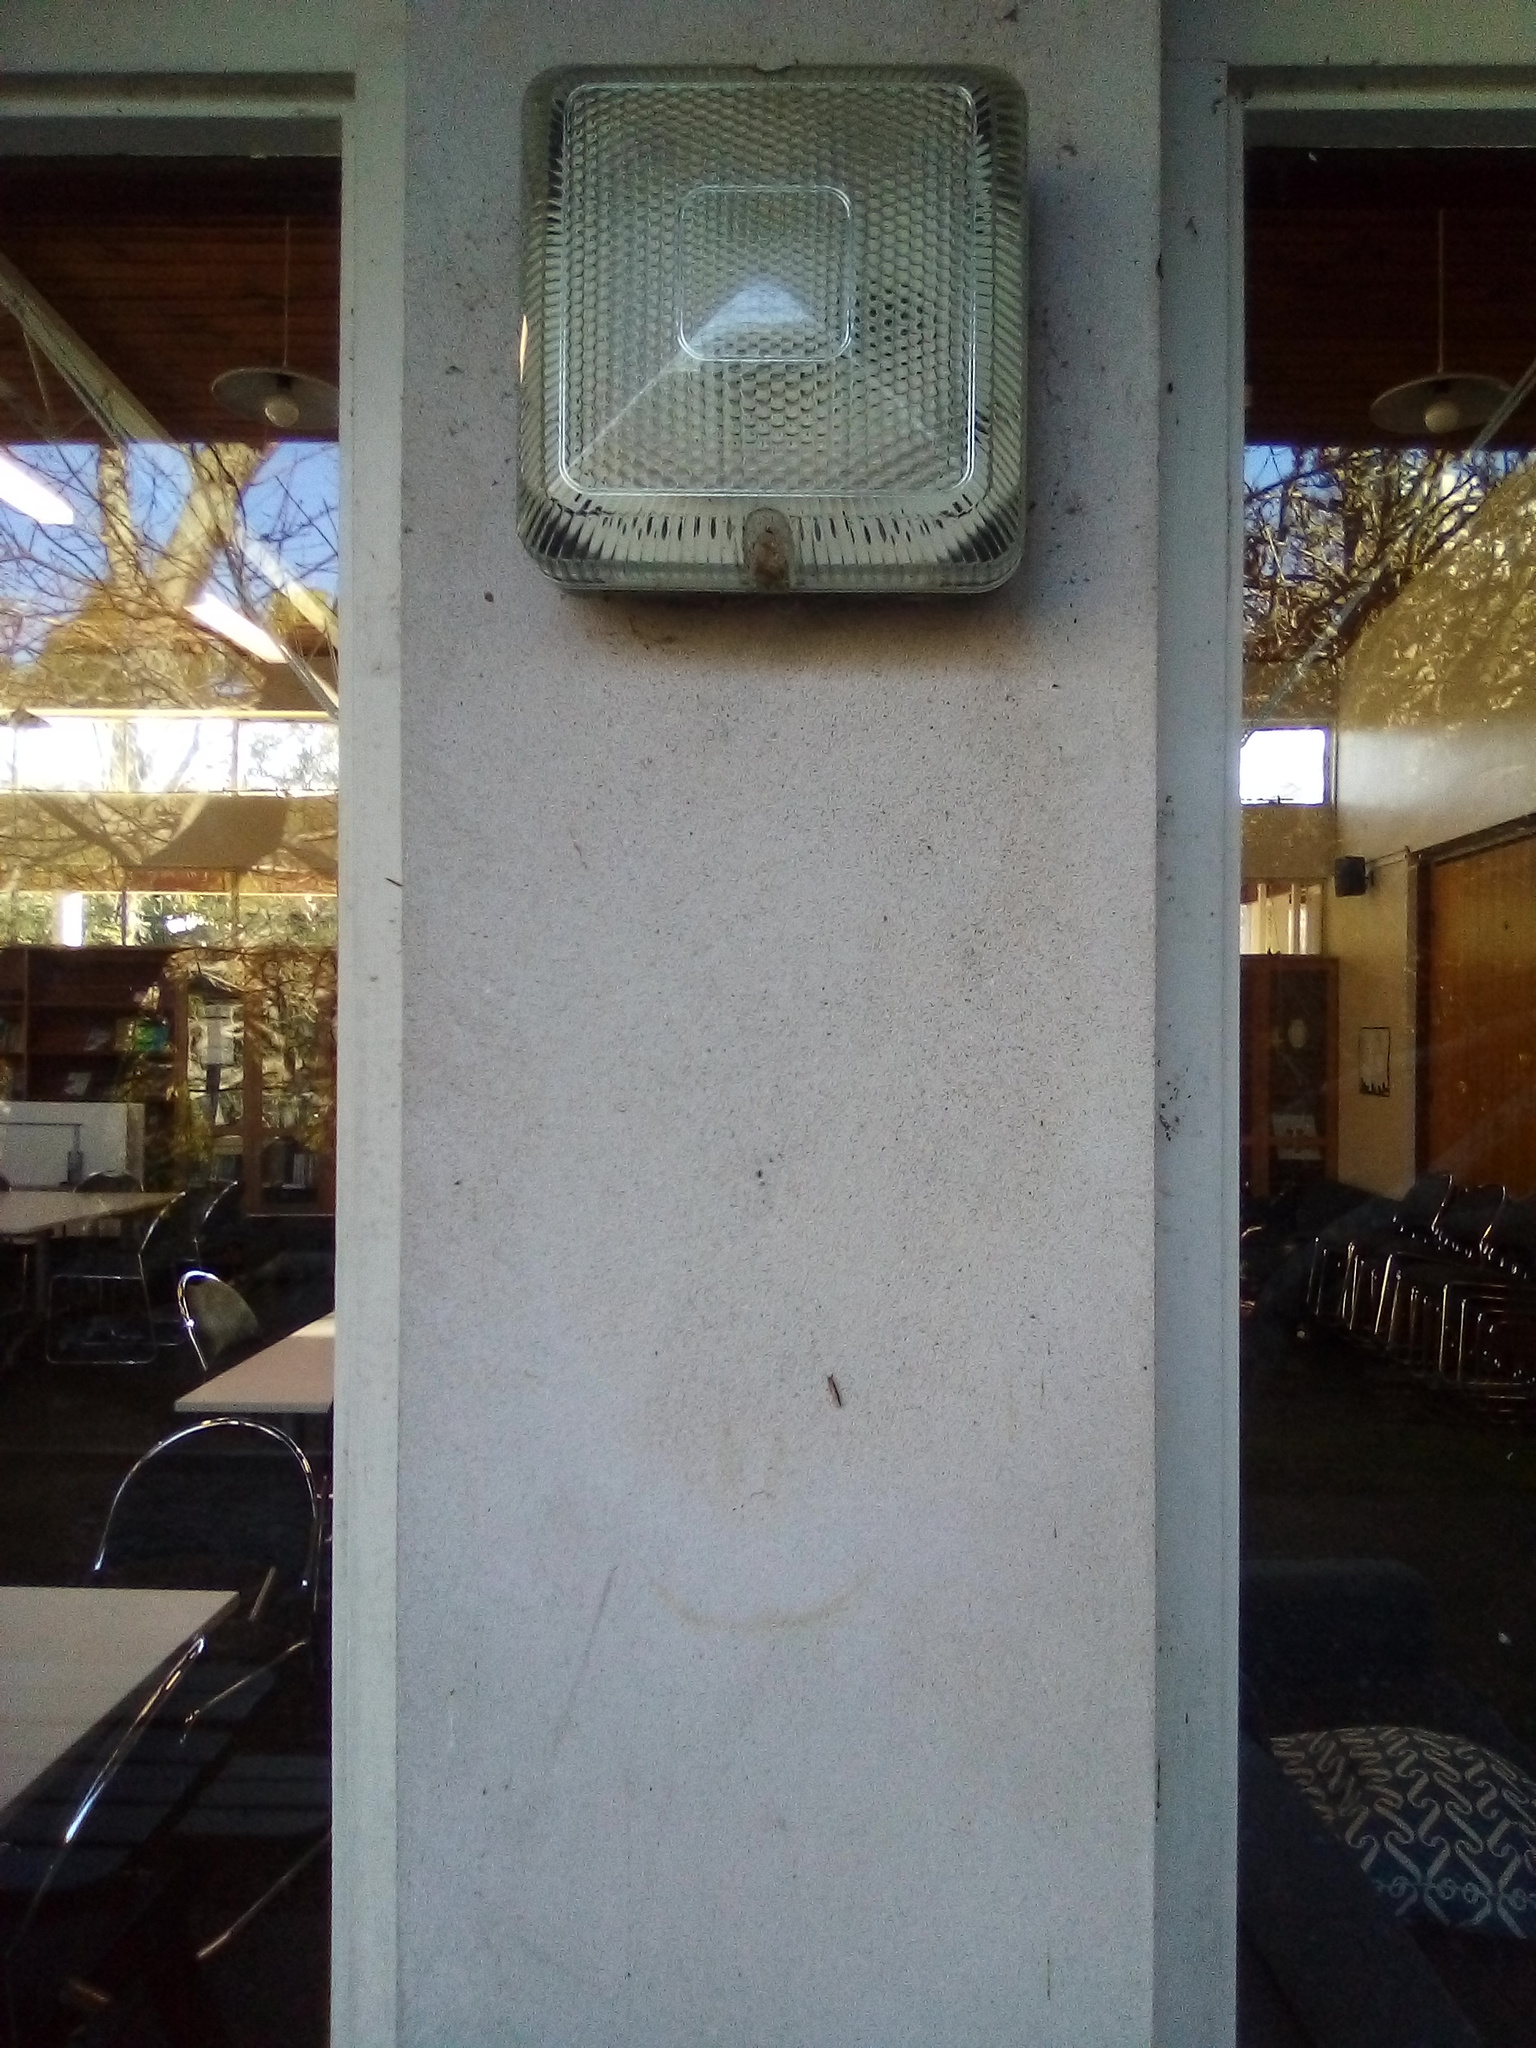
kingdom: Animalia
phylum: Arthropoda
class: Insecta
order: Lepidoptera
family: Oecophoridae
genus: Leptocroca
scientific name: Leptocroca sanguinolenta
